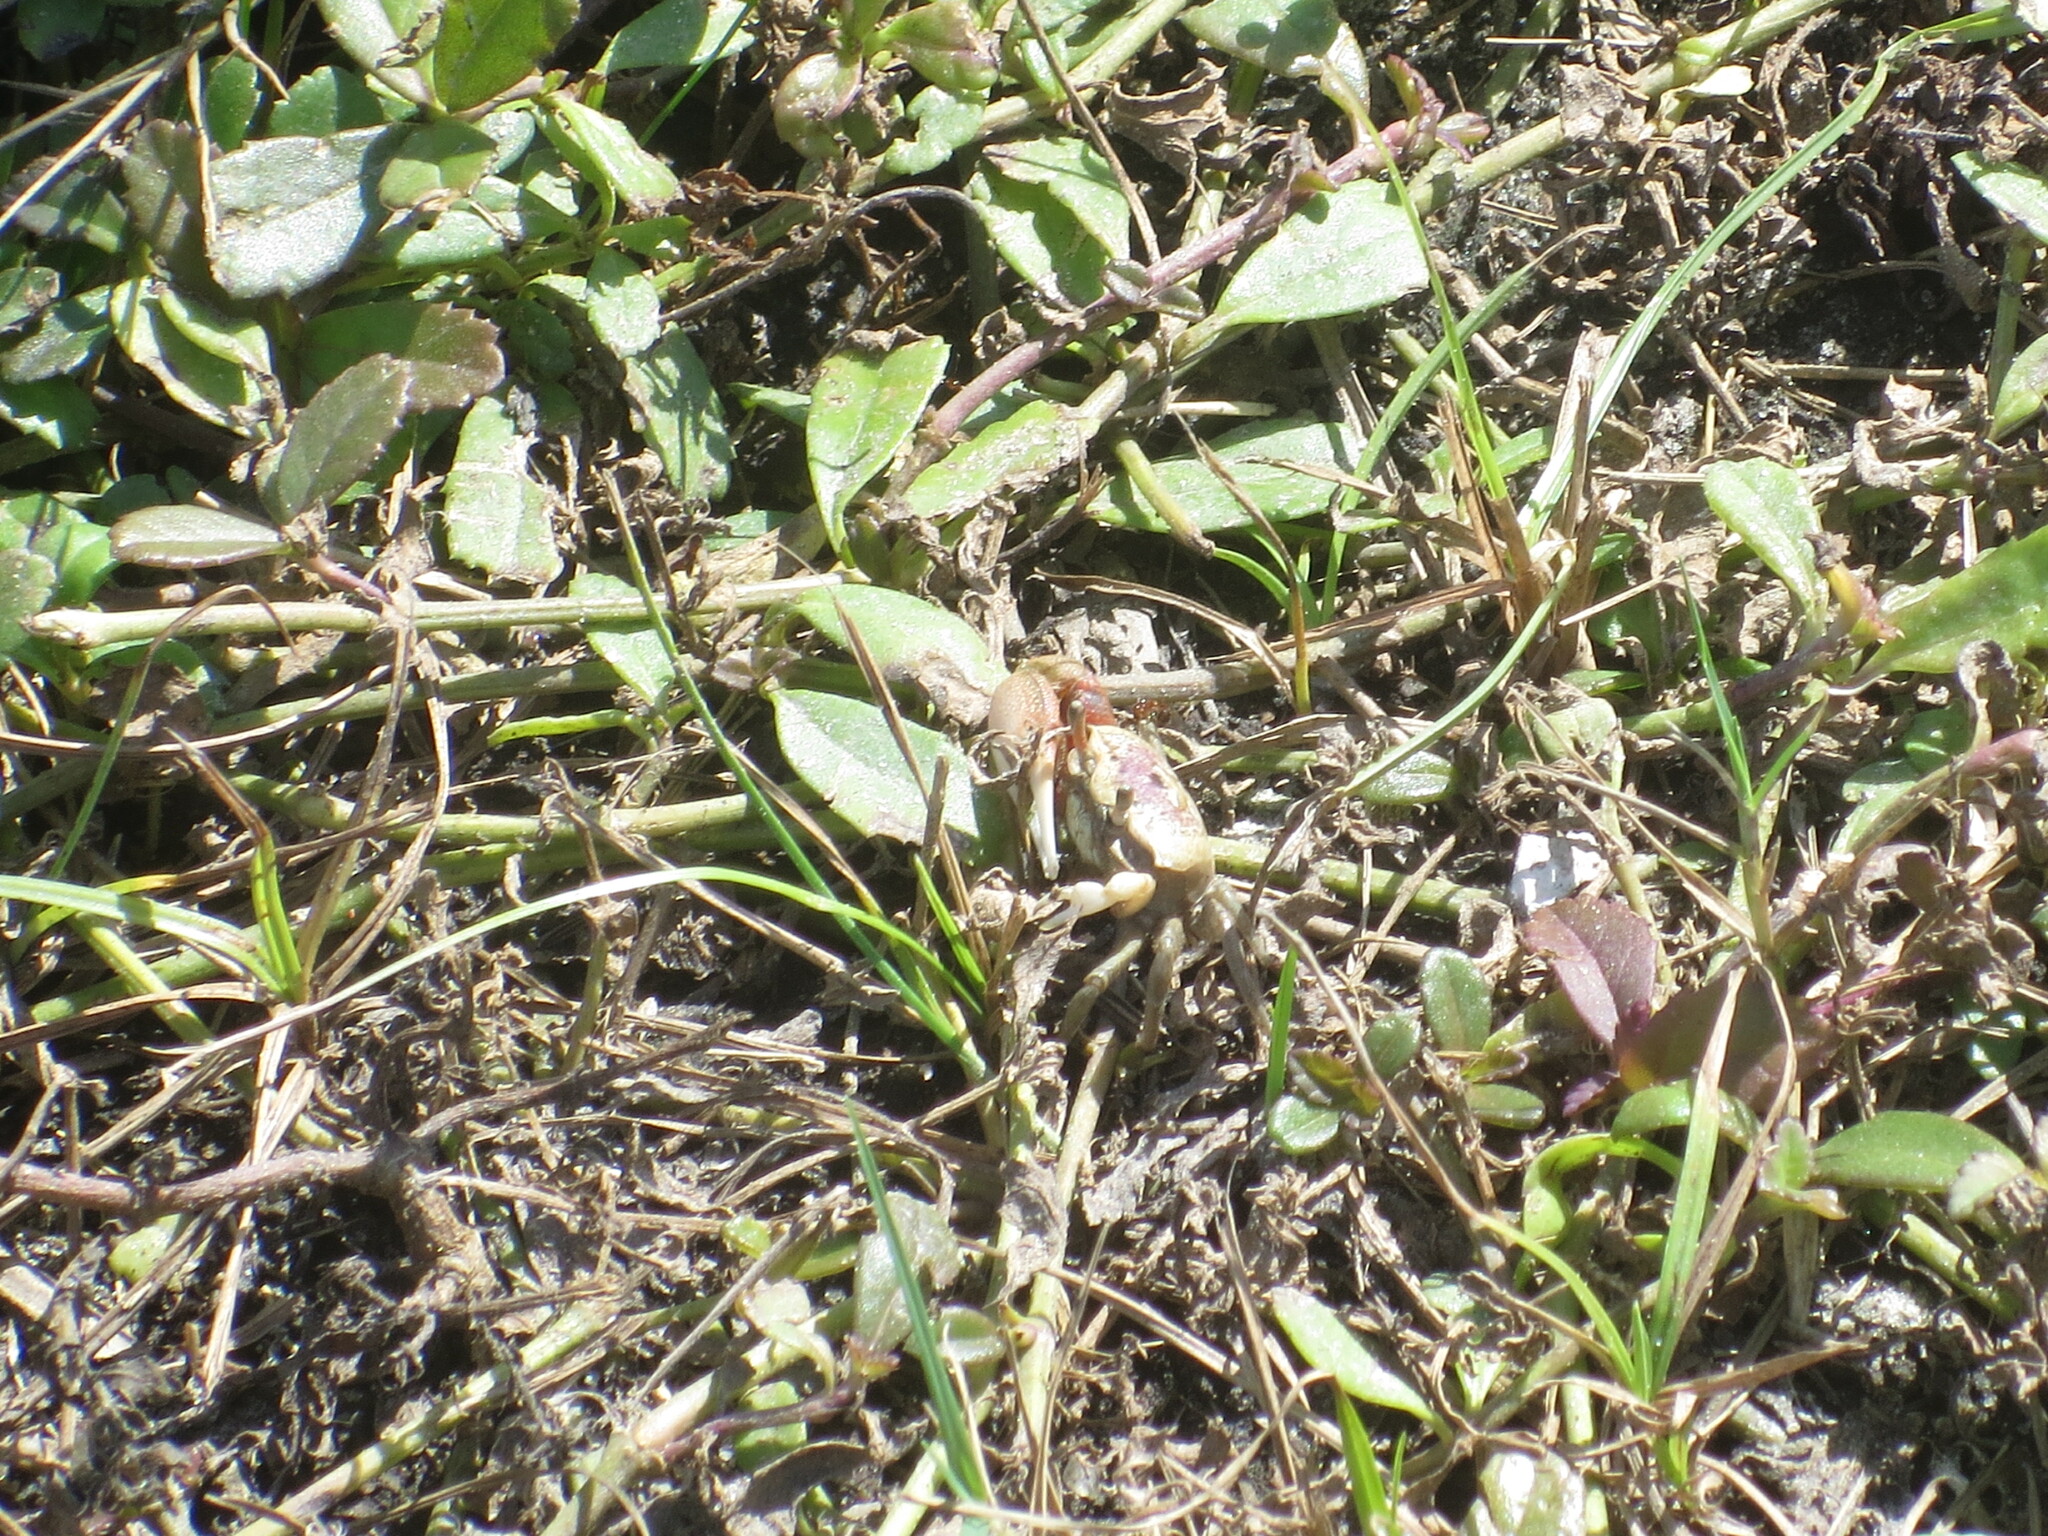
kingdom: Animalia
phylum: Arthropoda
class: Malacostraca
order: Decapoda
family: Ocypodidae
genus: Leptuca
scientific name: Leptuca pugilator
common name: Atlantic sand fiddler crab
